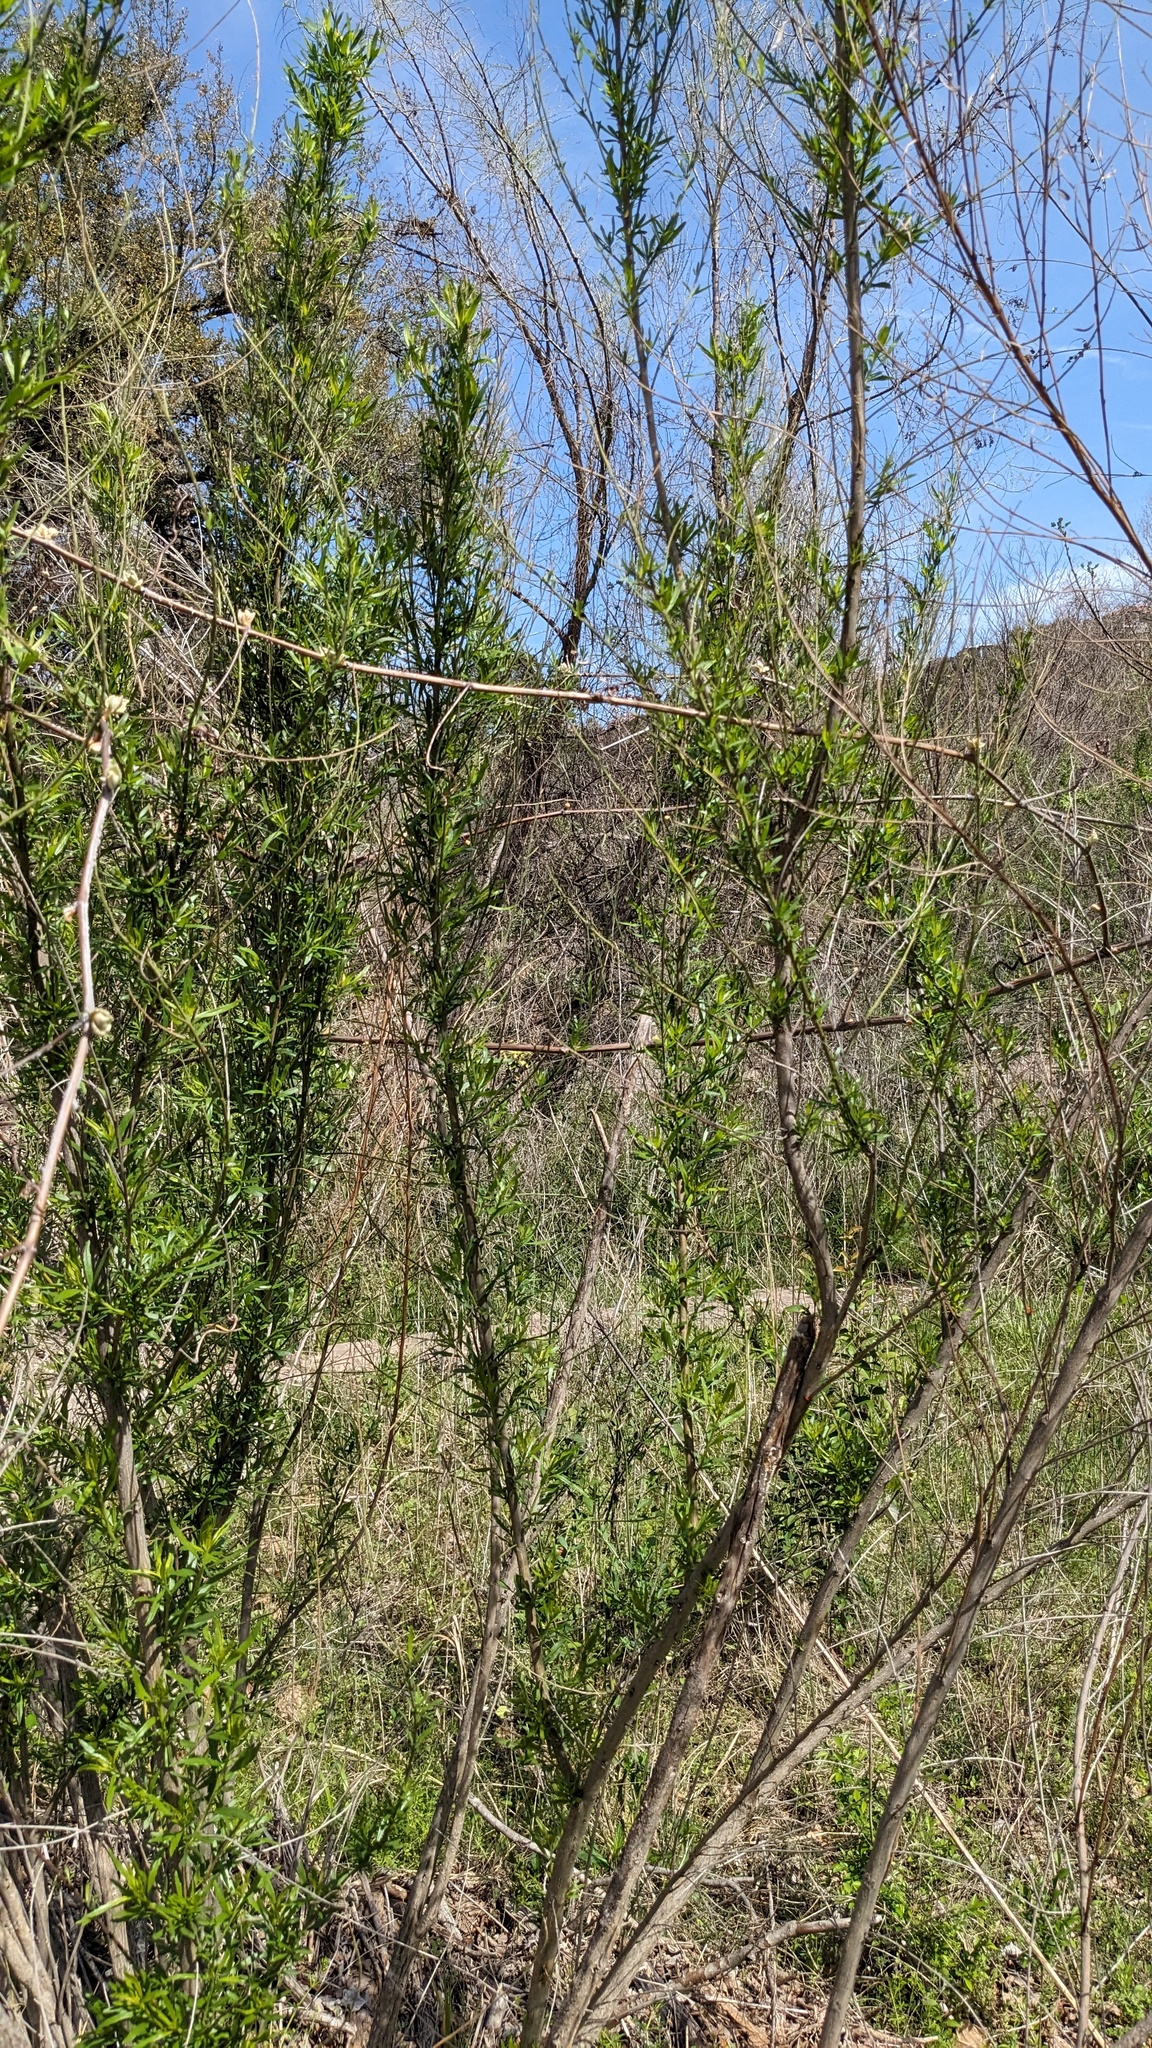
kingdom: Plantae
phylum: Tracheophyta
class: Magnoliopsida
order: Asterales
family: Asteraceae
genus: Baccharis
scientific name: Baccharis neglecta
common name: Roosevelt-weed
